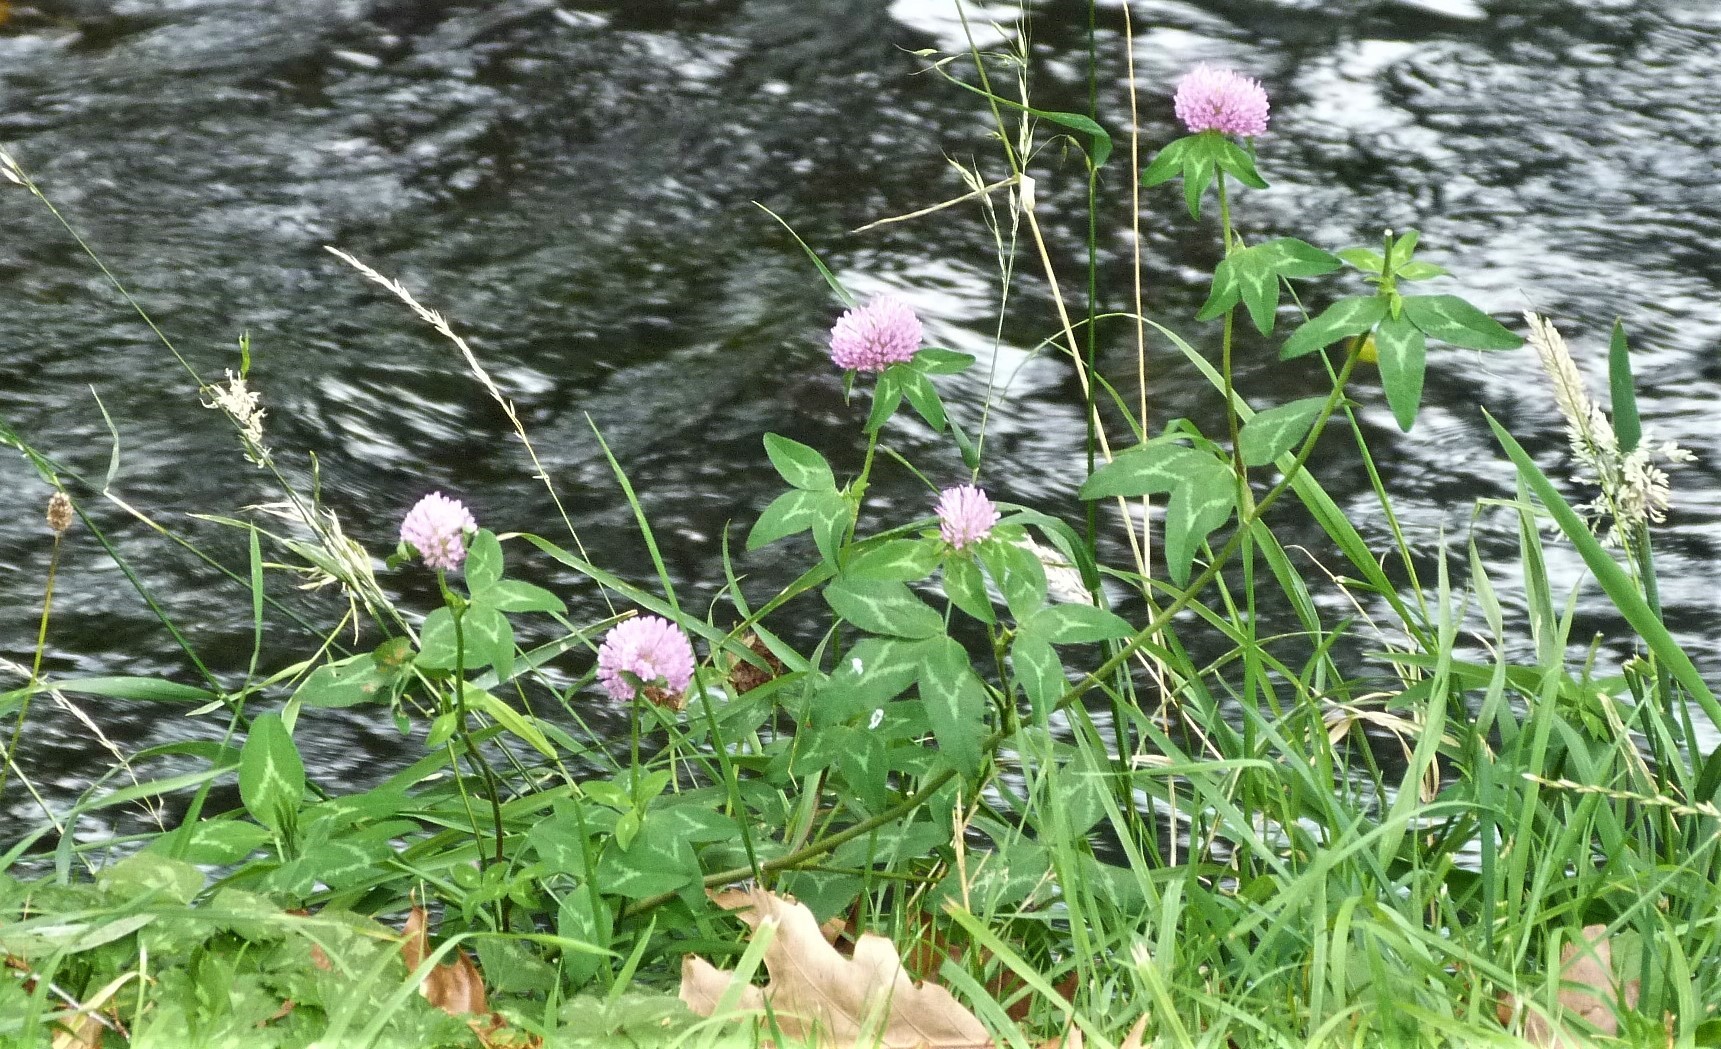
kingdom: Plantae
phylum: Tracheophyta
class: Magnoliopsida
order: Fabales
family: Fabaceae
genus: Trifolium
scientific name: Trifolium pratense
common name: Red clover
